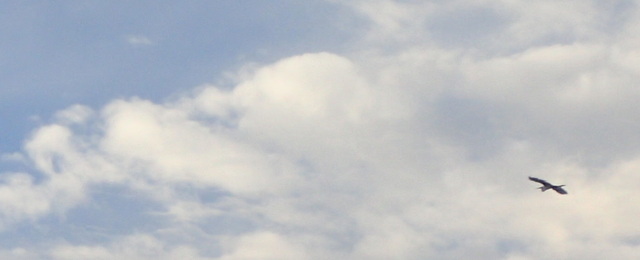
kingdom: Animalia
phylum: Chordata
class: Aves
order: Pelecaniformes
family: Ardeidae
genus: Ardea
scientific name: Ardea herodias
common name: Great blue heron
